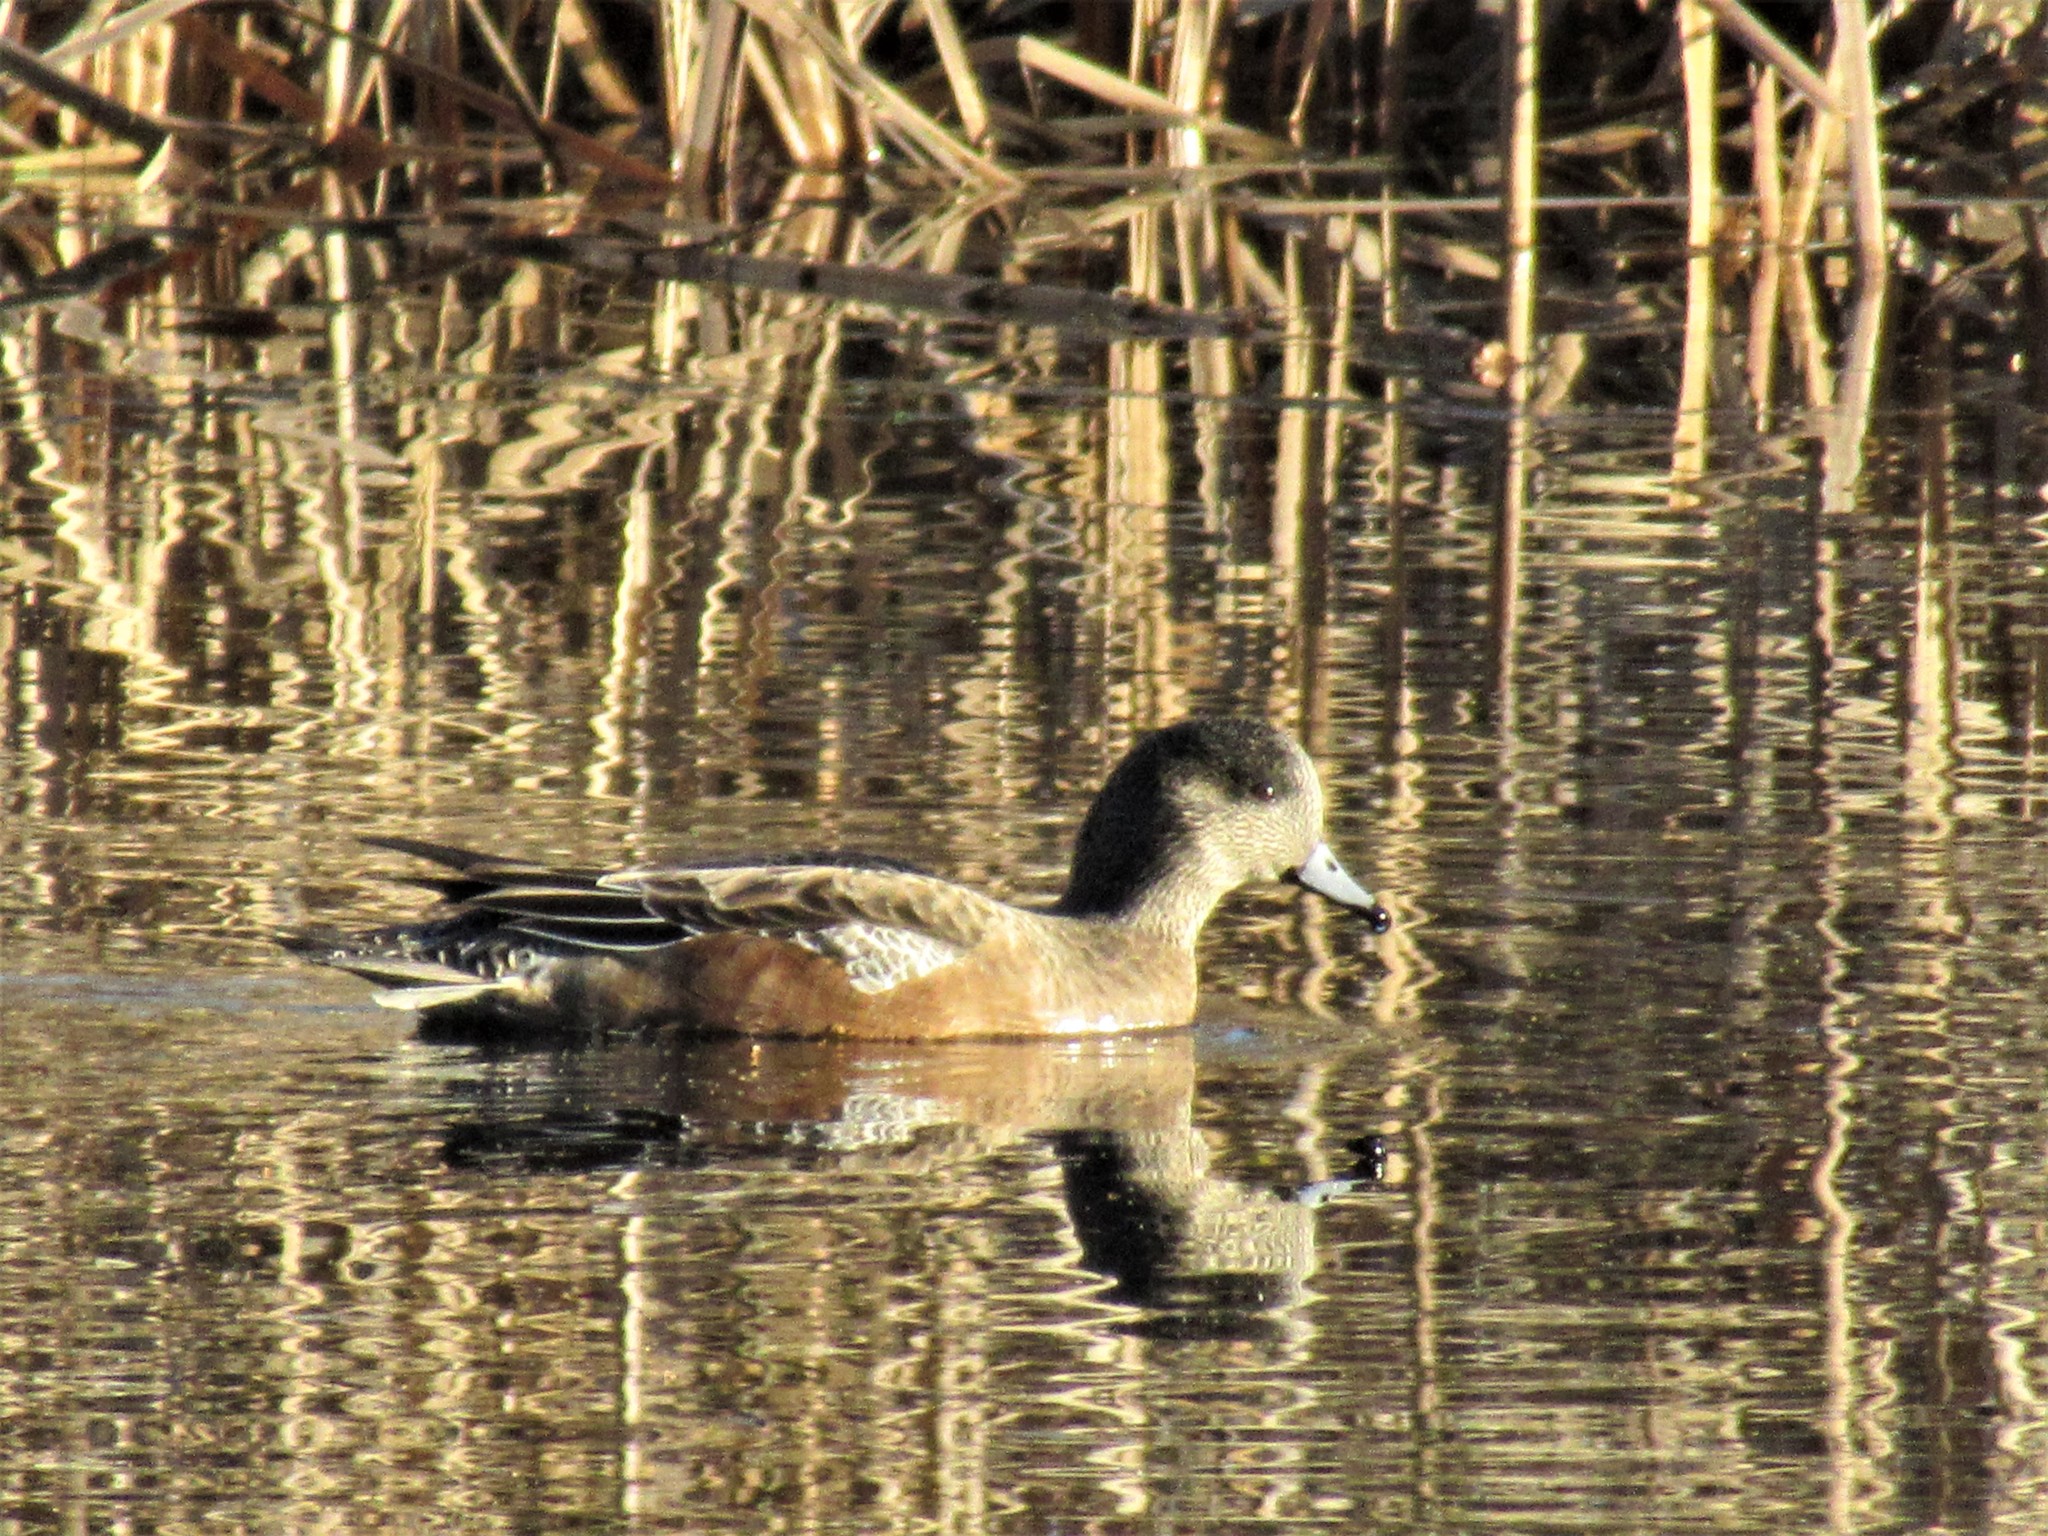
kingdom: Animalia
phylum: Chordata
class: Aves
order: Anseriformes
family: Anatidae
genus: Mareca
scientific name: Mareca americana
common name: American wigeon
